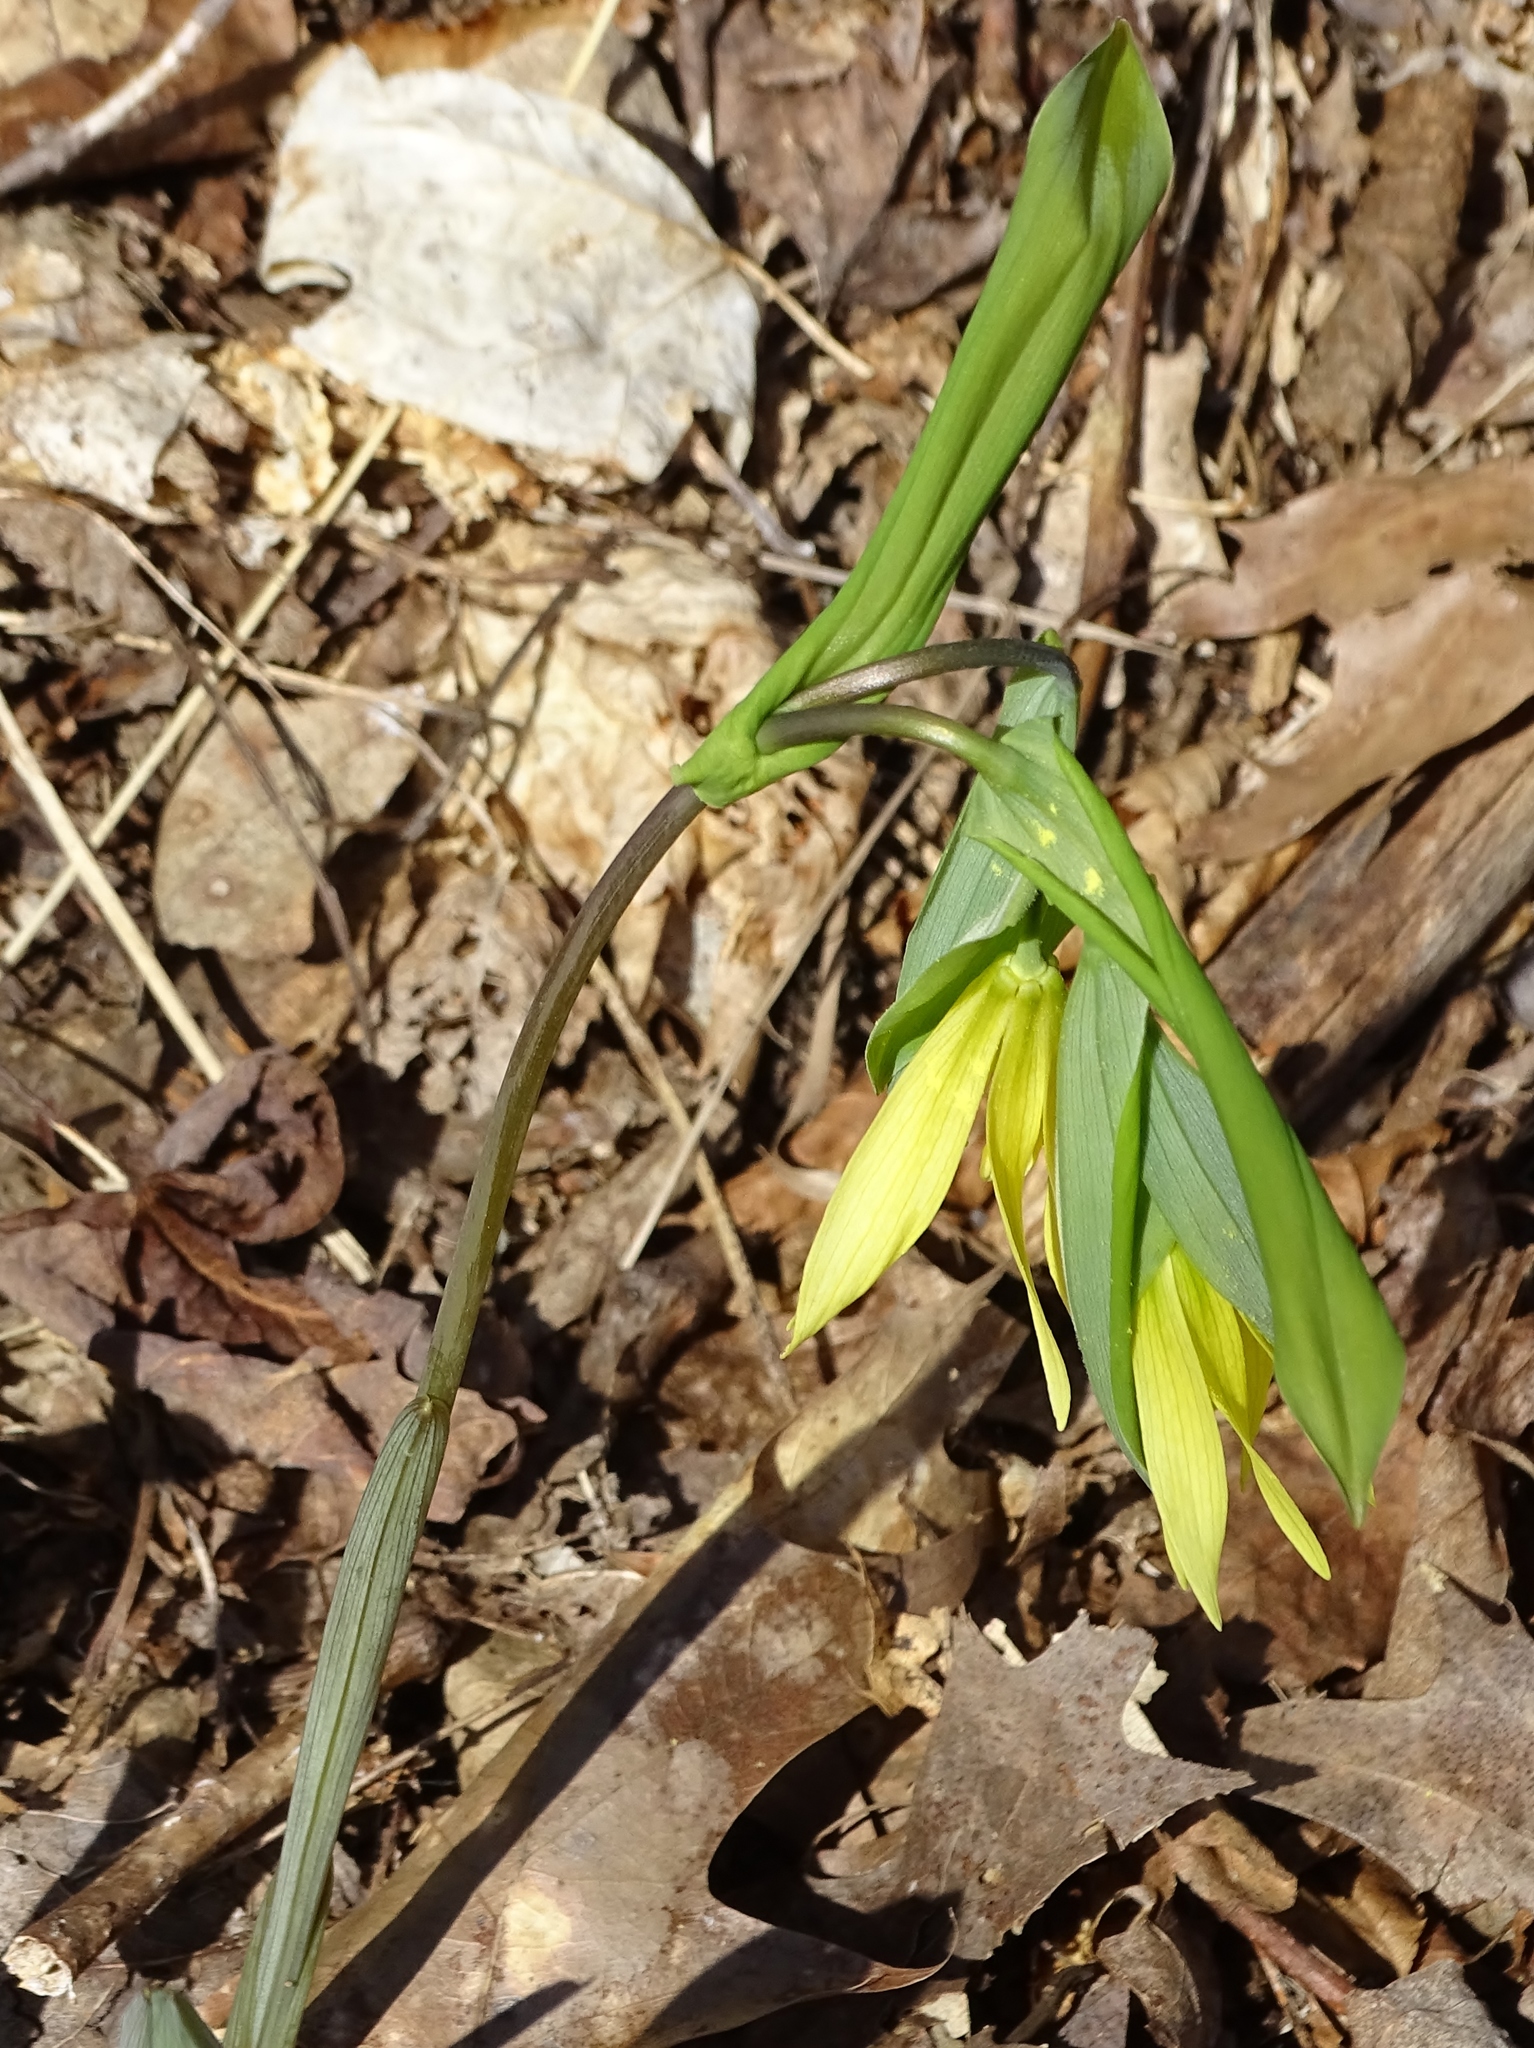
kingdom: Plantae
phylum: Tracheophyta
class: Liliopsida
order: Liliales
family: Colchicaceae
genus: Uvularia
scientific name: Uvularia grandiflora
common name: Bellwort
